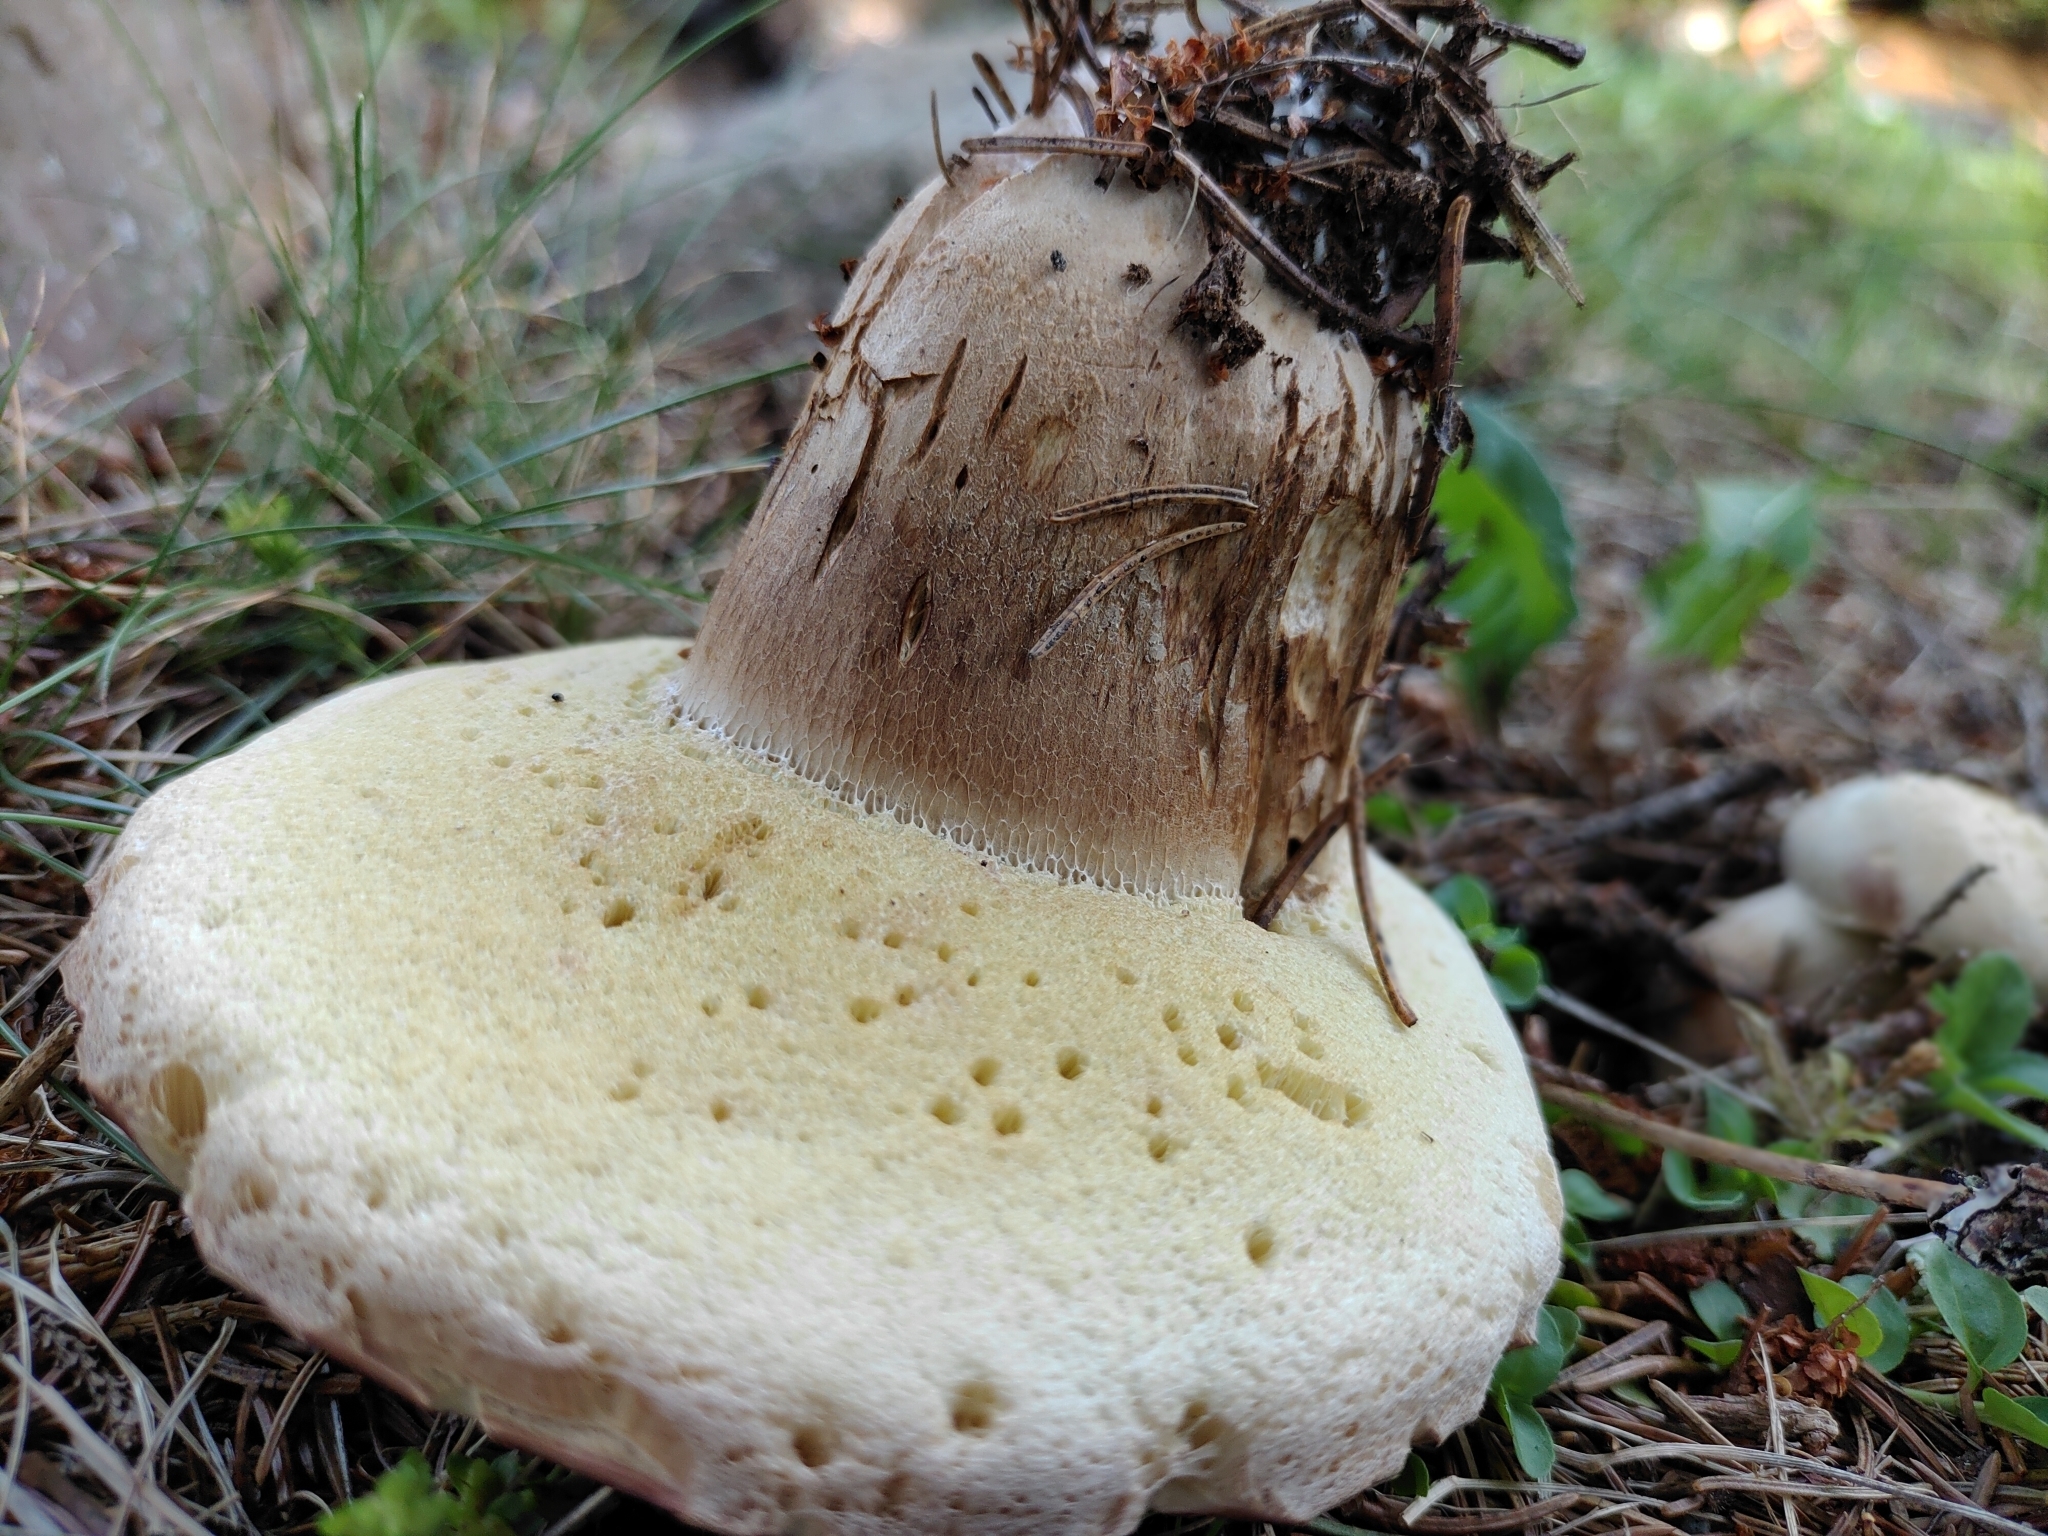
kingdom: Fungi
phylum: Basidiomycota
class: Agaricomycetes
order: Boletales
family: Boletaceae
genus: Boletus
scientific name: Boletus edulis
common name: Cep
